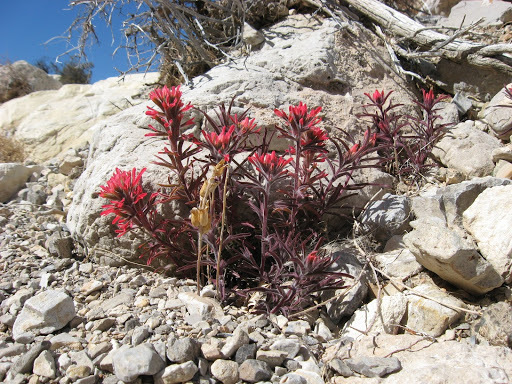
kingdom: Plantae
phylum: Tracheophyta
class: Magnoliopsida
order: Lamiales
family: Orobanchaceae
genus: Castilleja
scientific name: Castilleja
